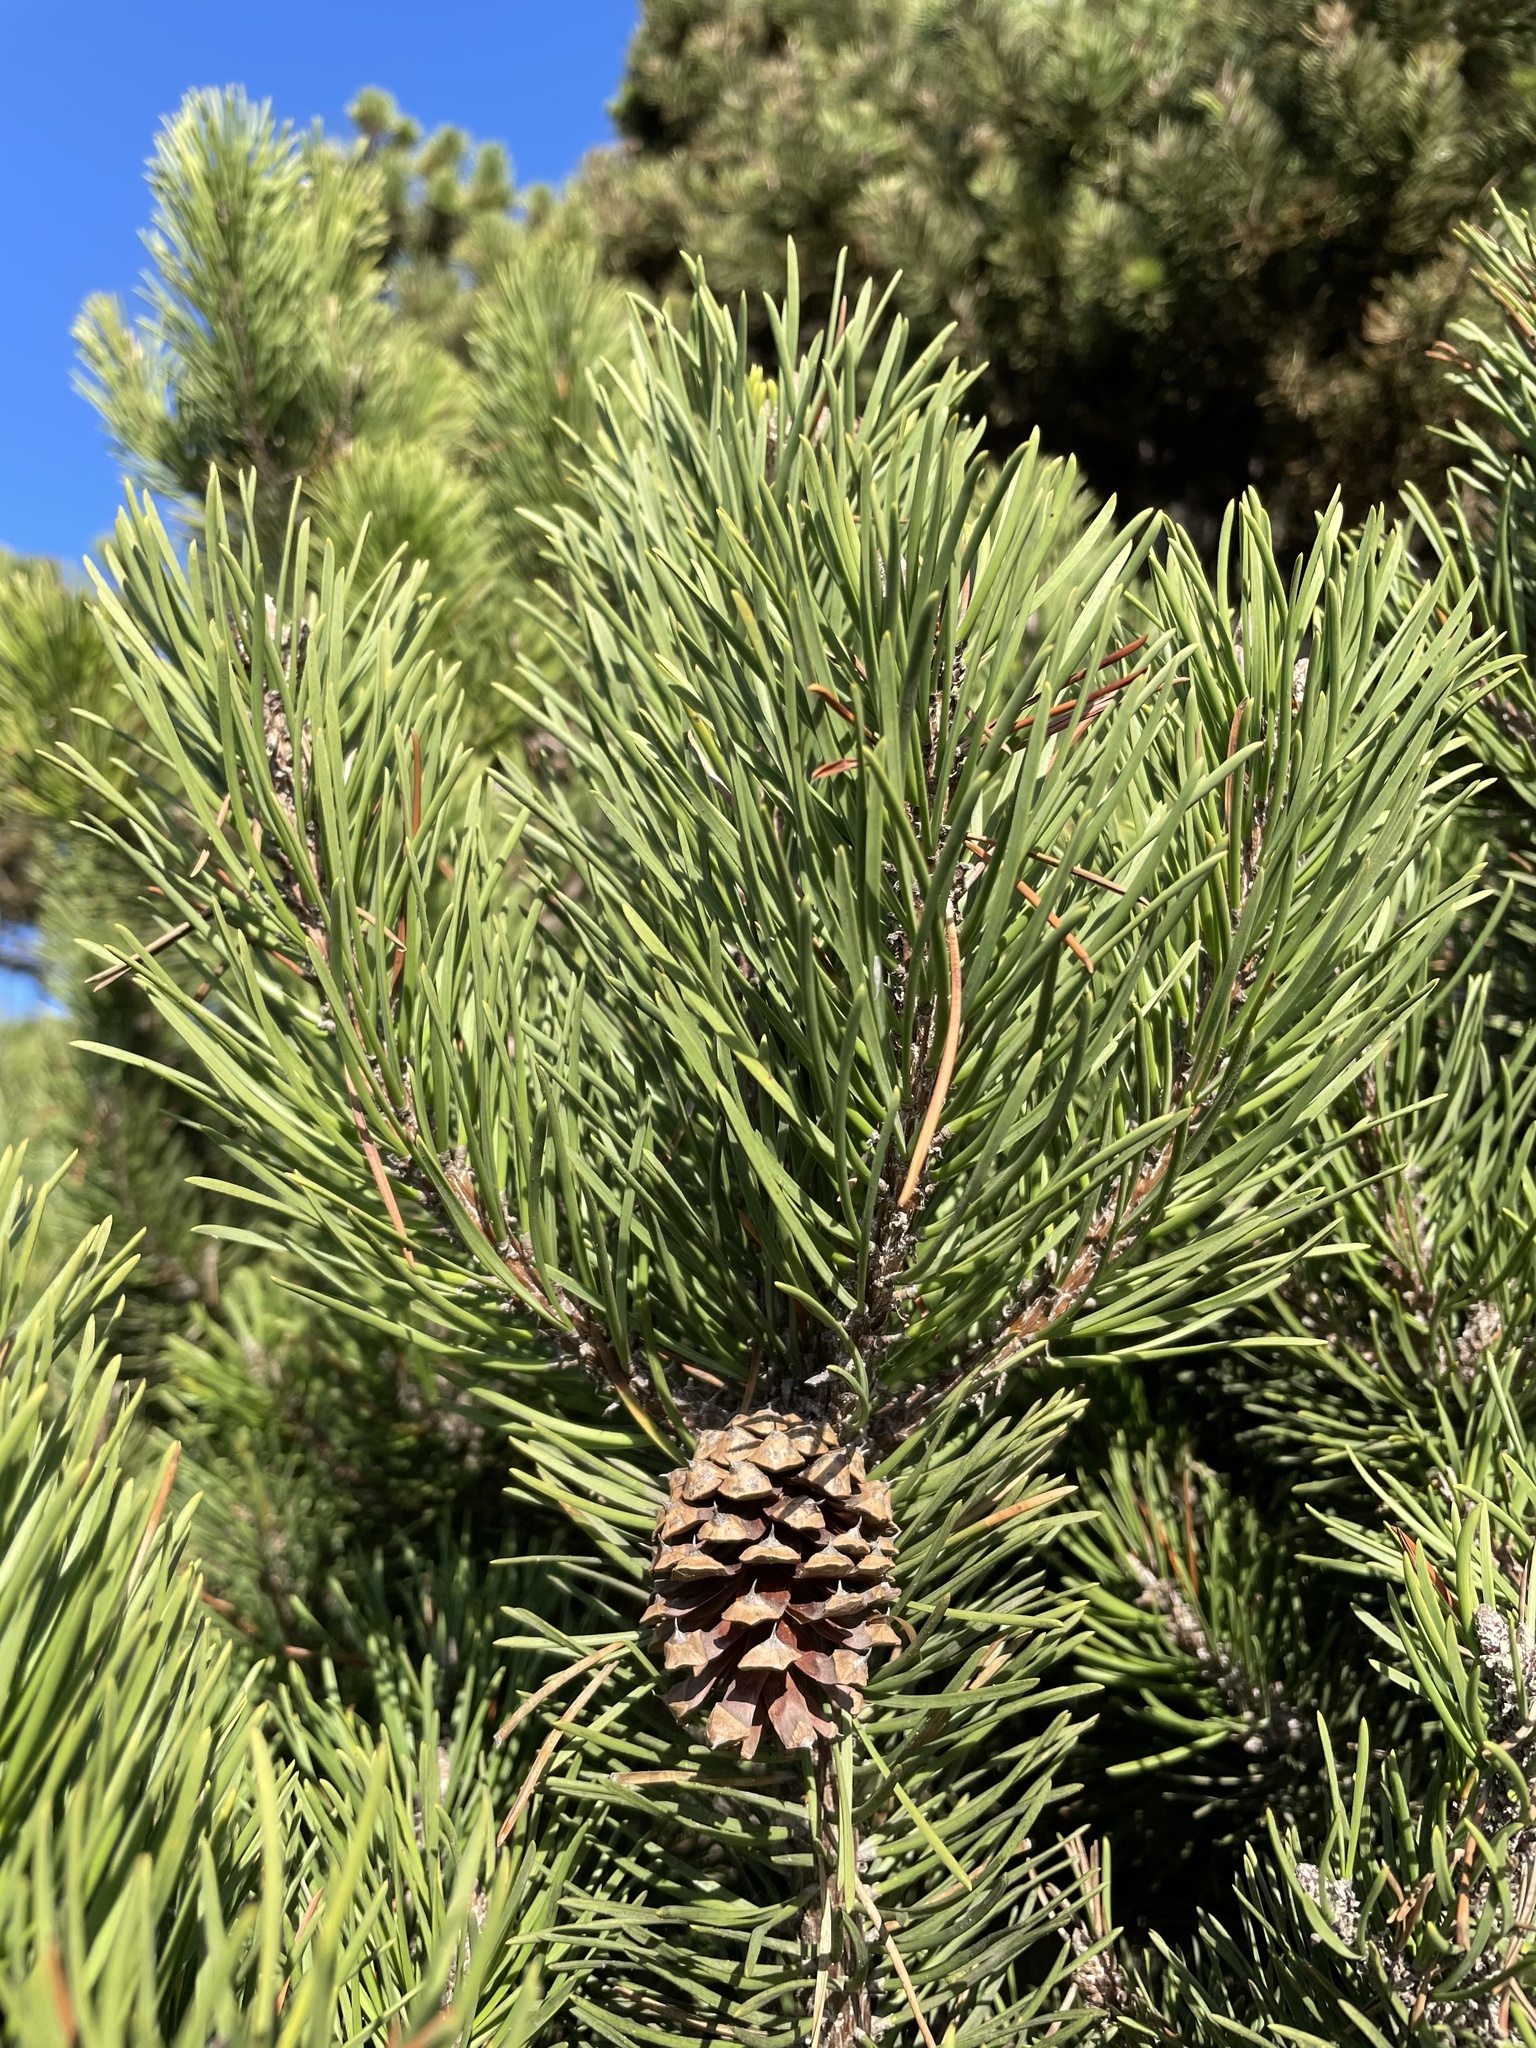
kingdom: Plantae
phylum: Tracheophyta
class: Pinopsida
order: Pinales
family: Pinaceae
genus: Pinus
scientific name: Pinus contorta
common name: Lodgepole pine
